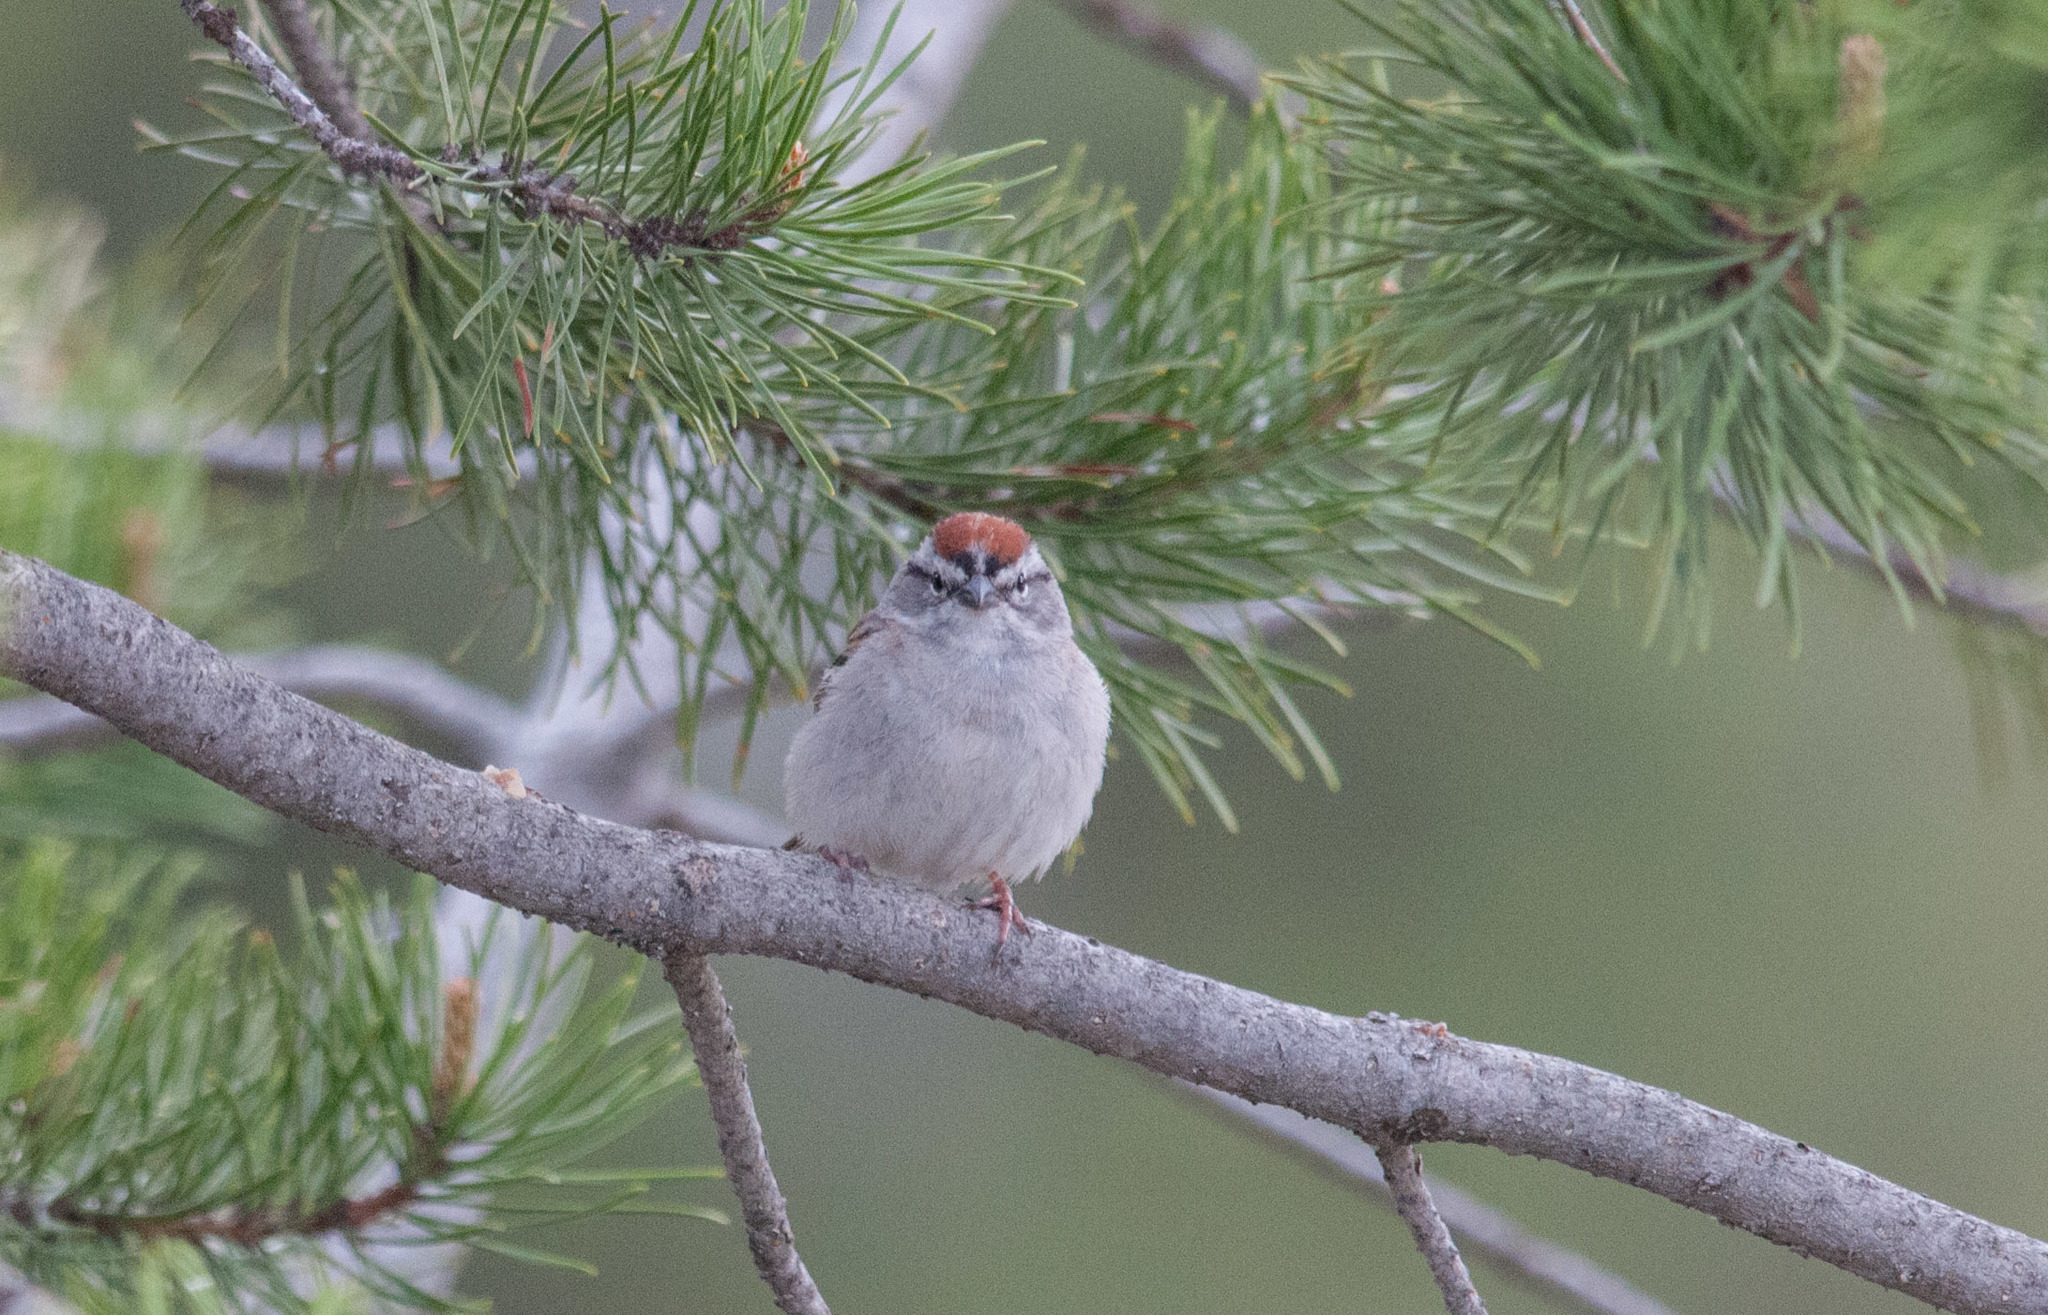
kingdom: Animalia
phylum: Chordata
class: Aves
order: Passeriformes
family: Passerellidae
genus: Spizella
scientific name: Spizella passerina
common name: Chipping sparrow
